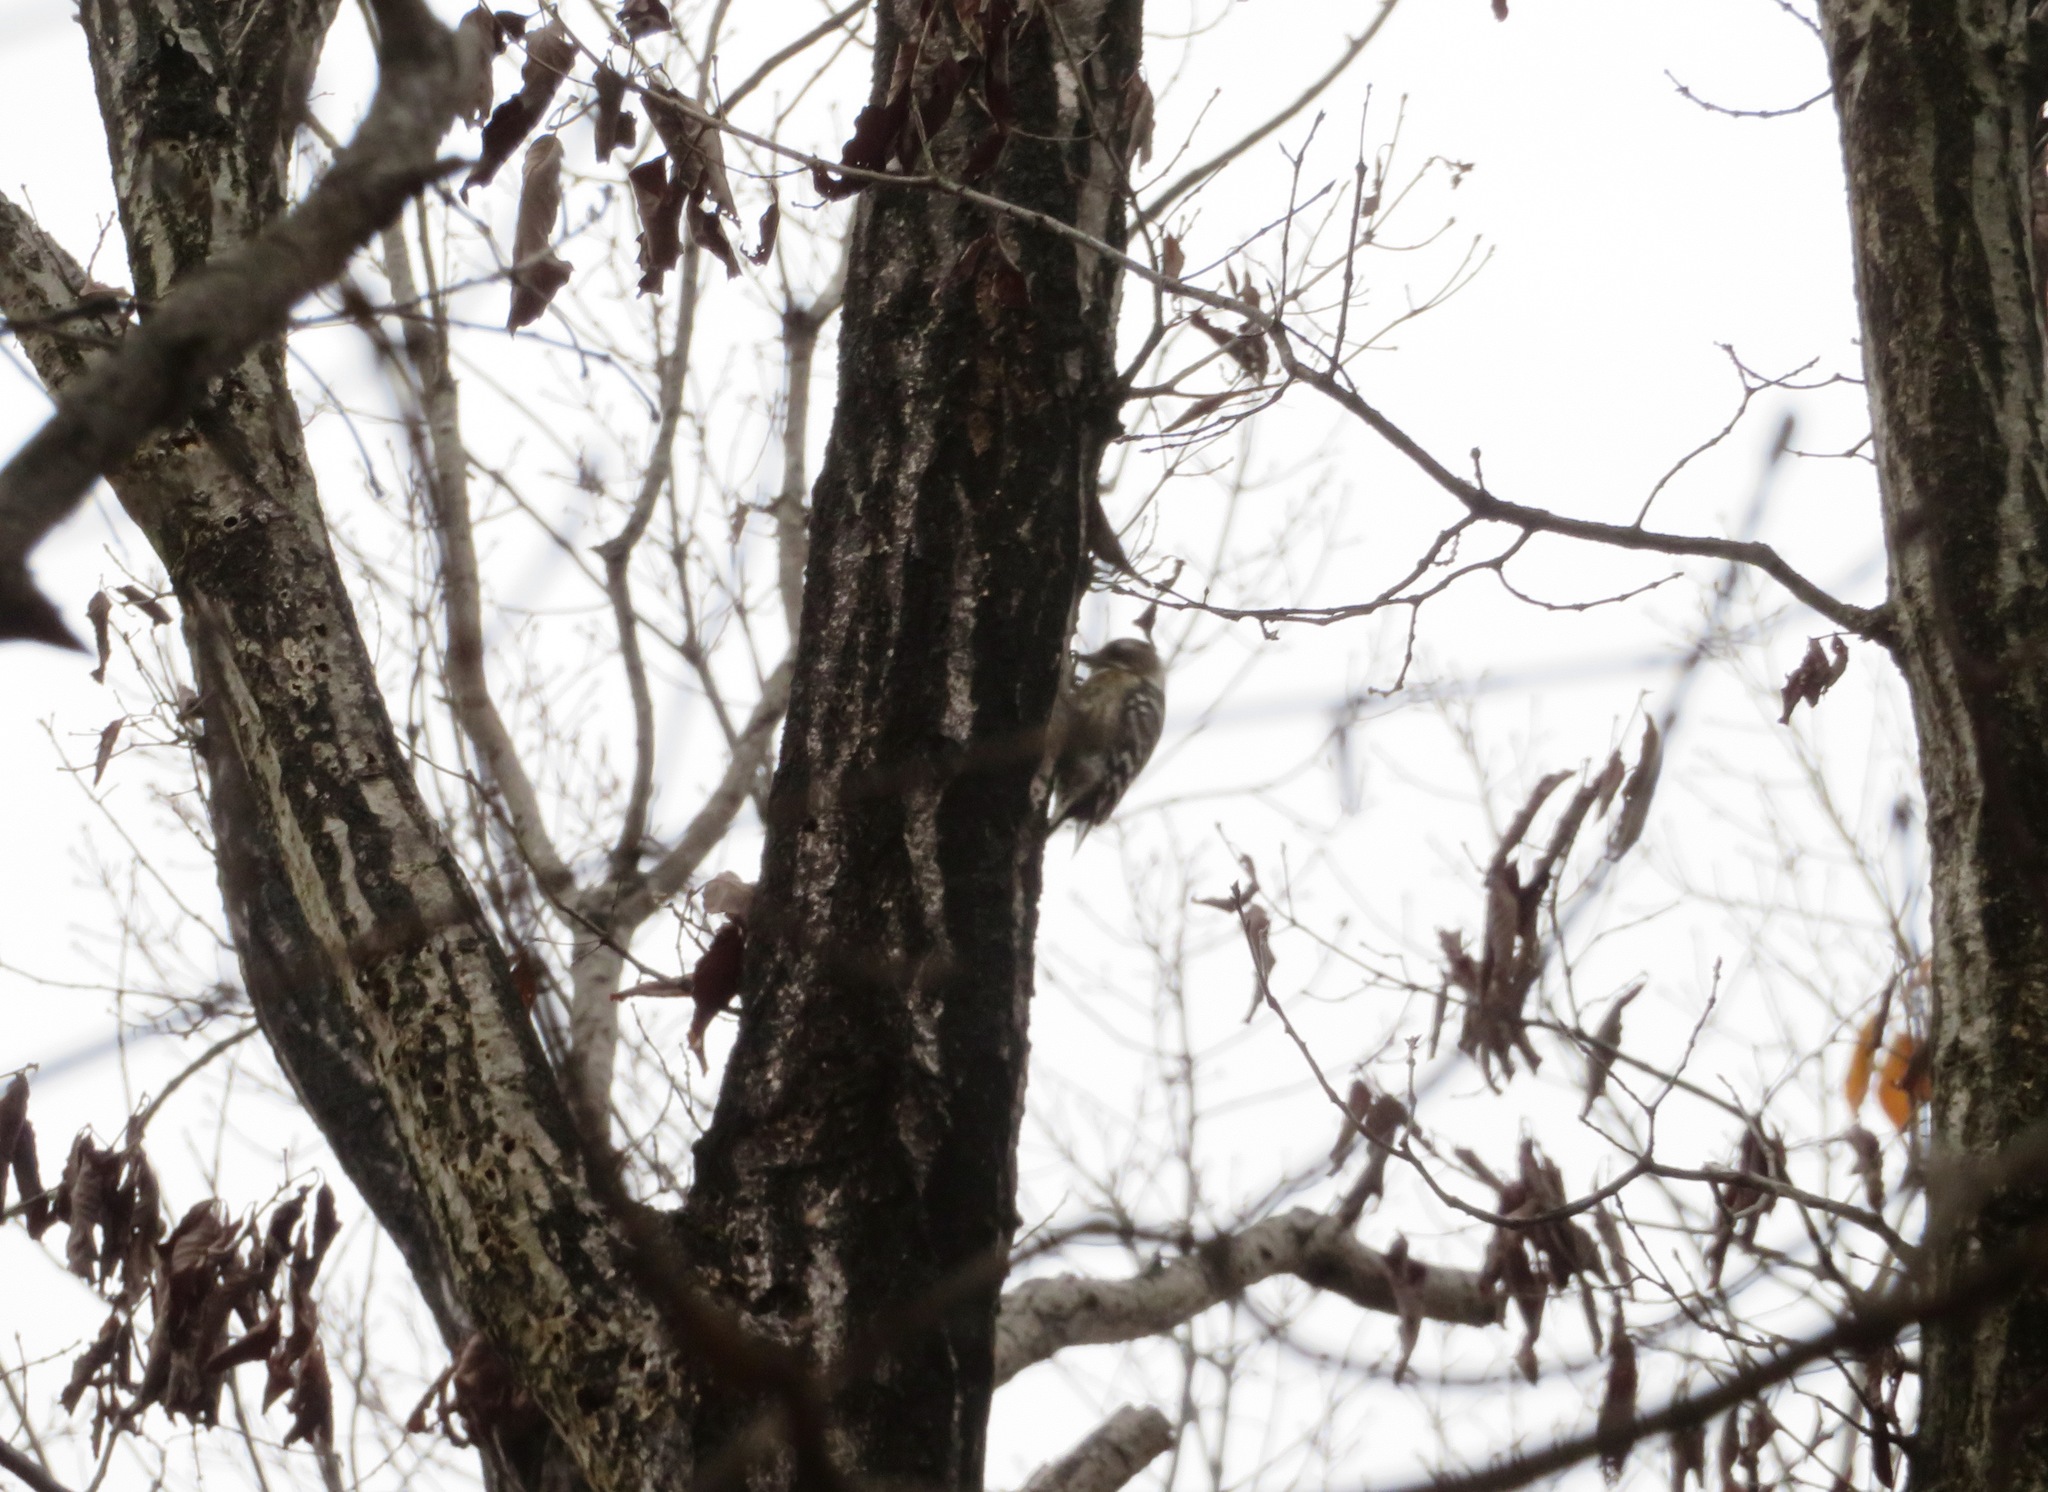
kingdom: Animalia
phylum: Chordata
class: Aves
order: Piciformes
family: Picidae
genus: Yungipicus
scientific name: Yungipicus kizuki
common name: Japanese pygmy woodpecker
